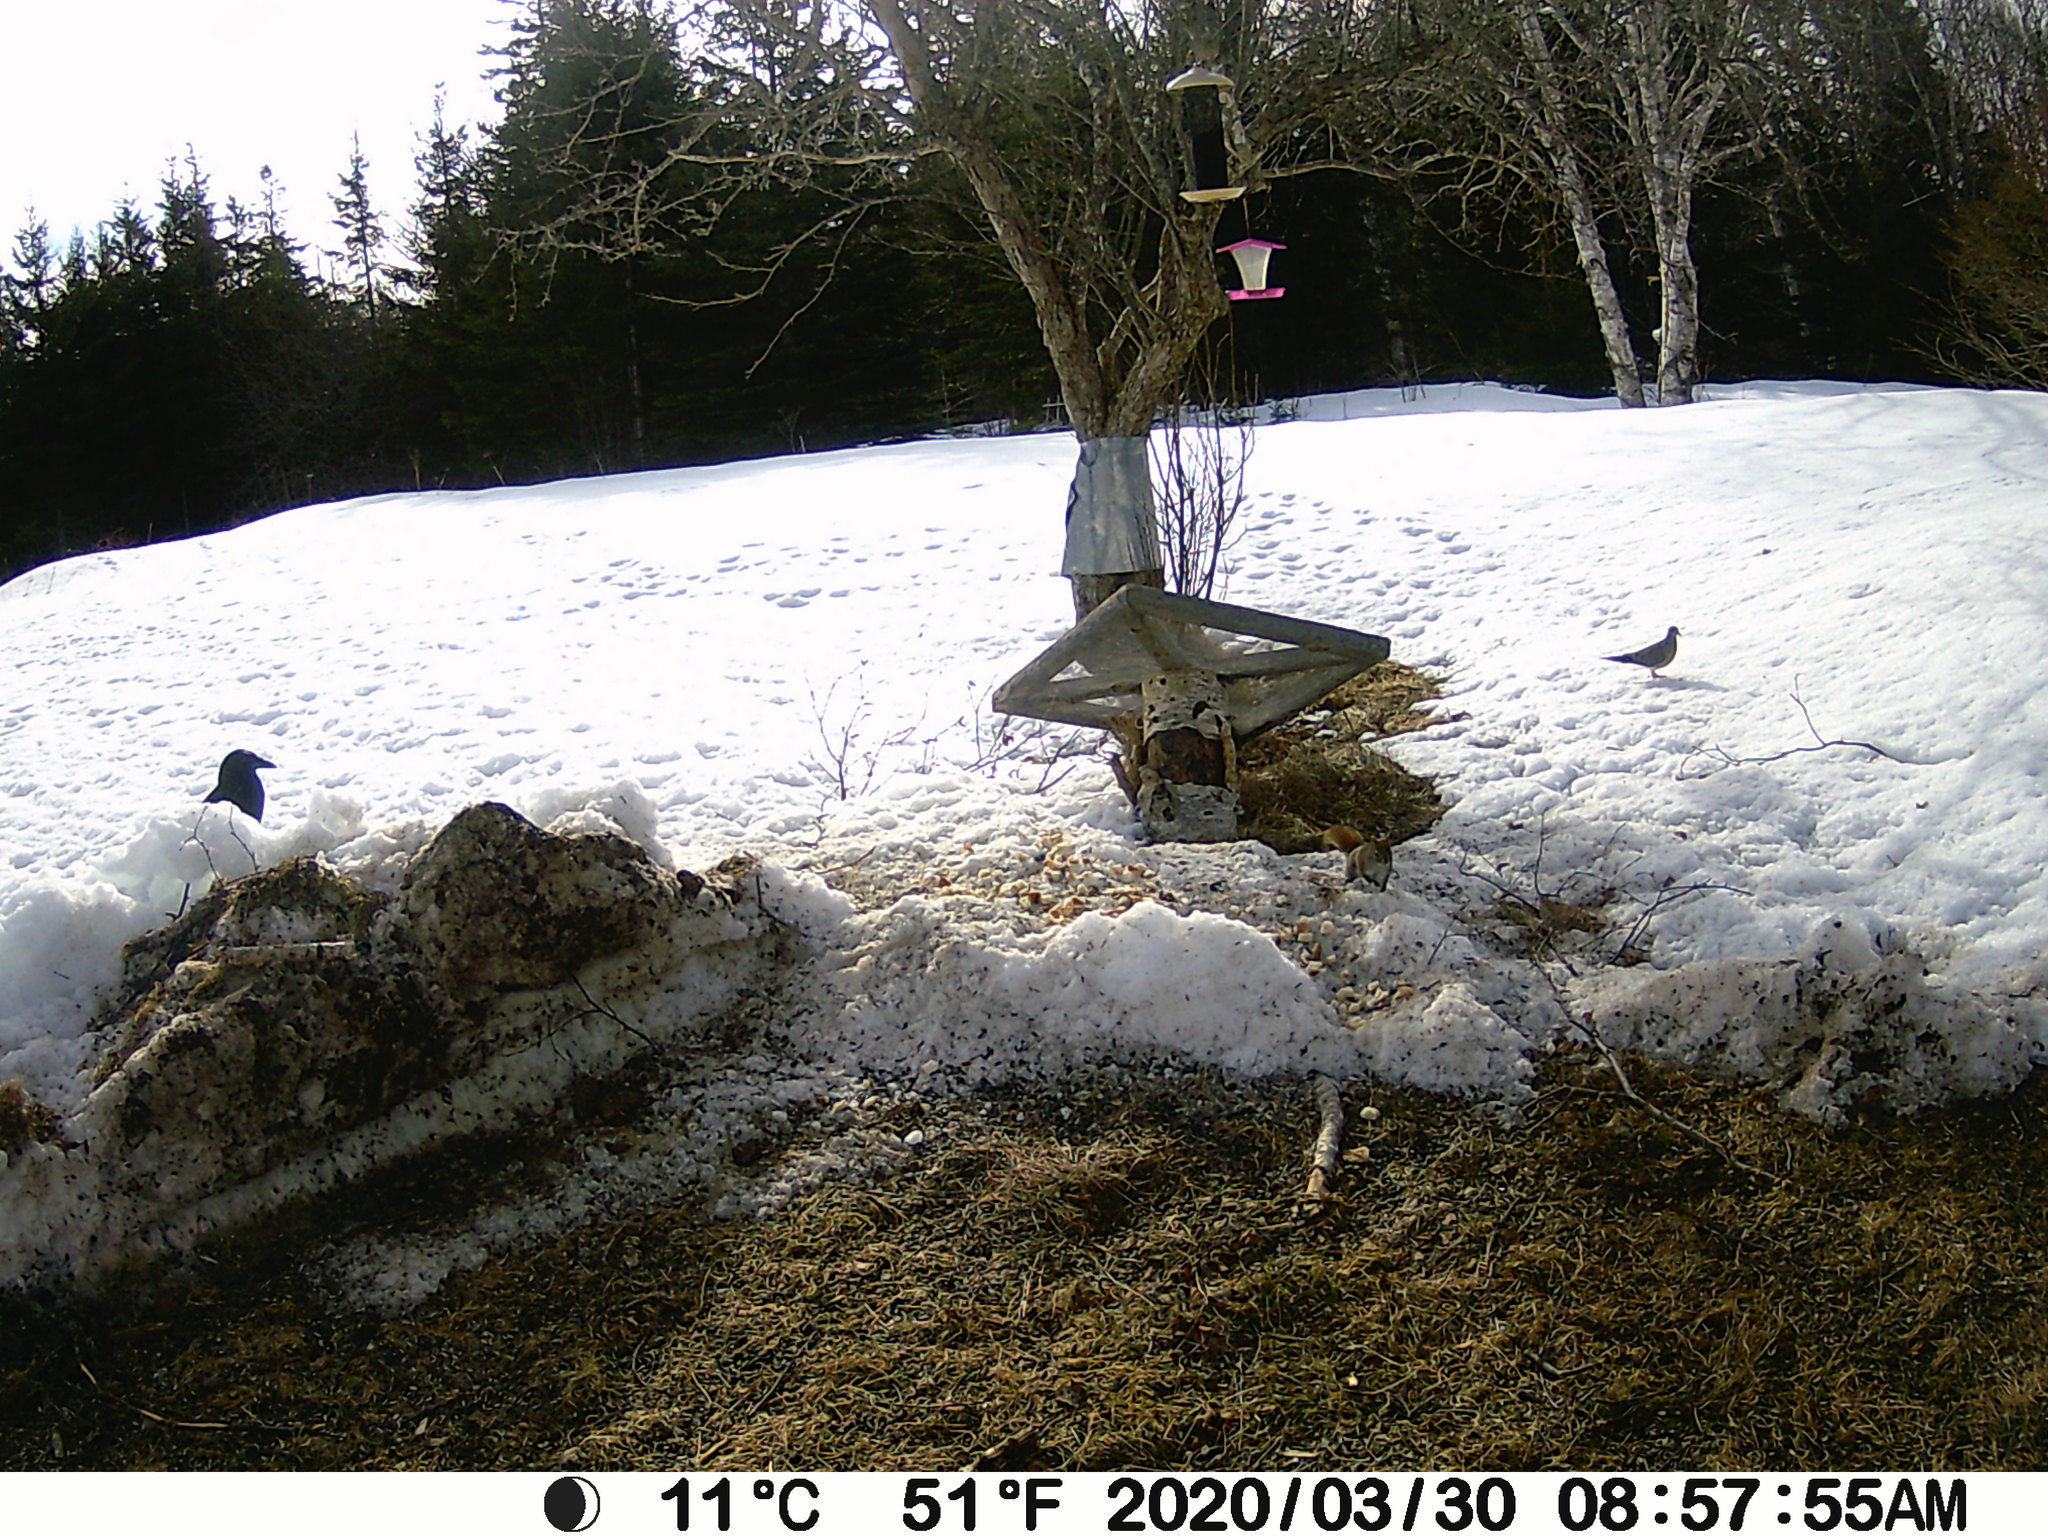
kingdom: Animalia
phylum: Chordata
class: Aves
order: Columbiformes
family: Columbidae
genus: Zenaida
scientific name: Zenaida macroura
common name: Mourning dove
